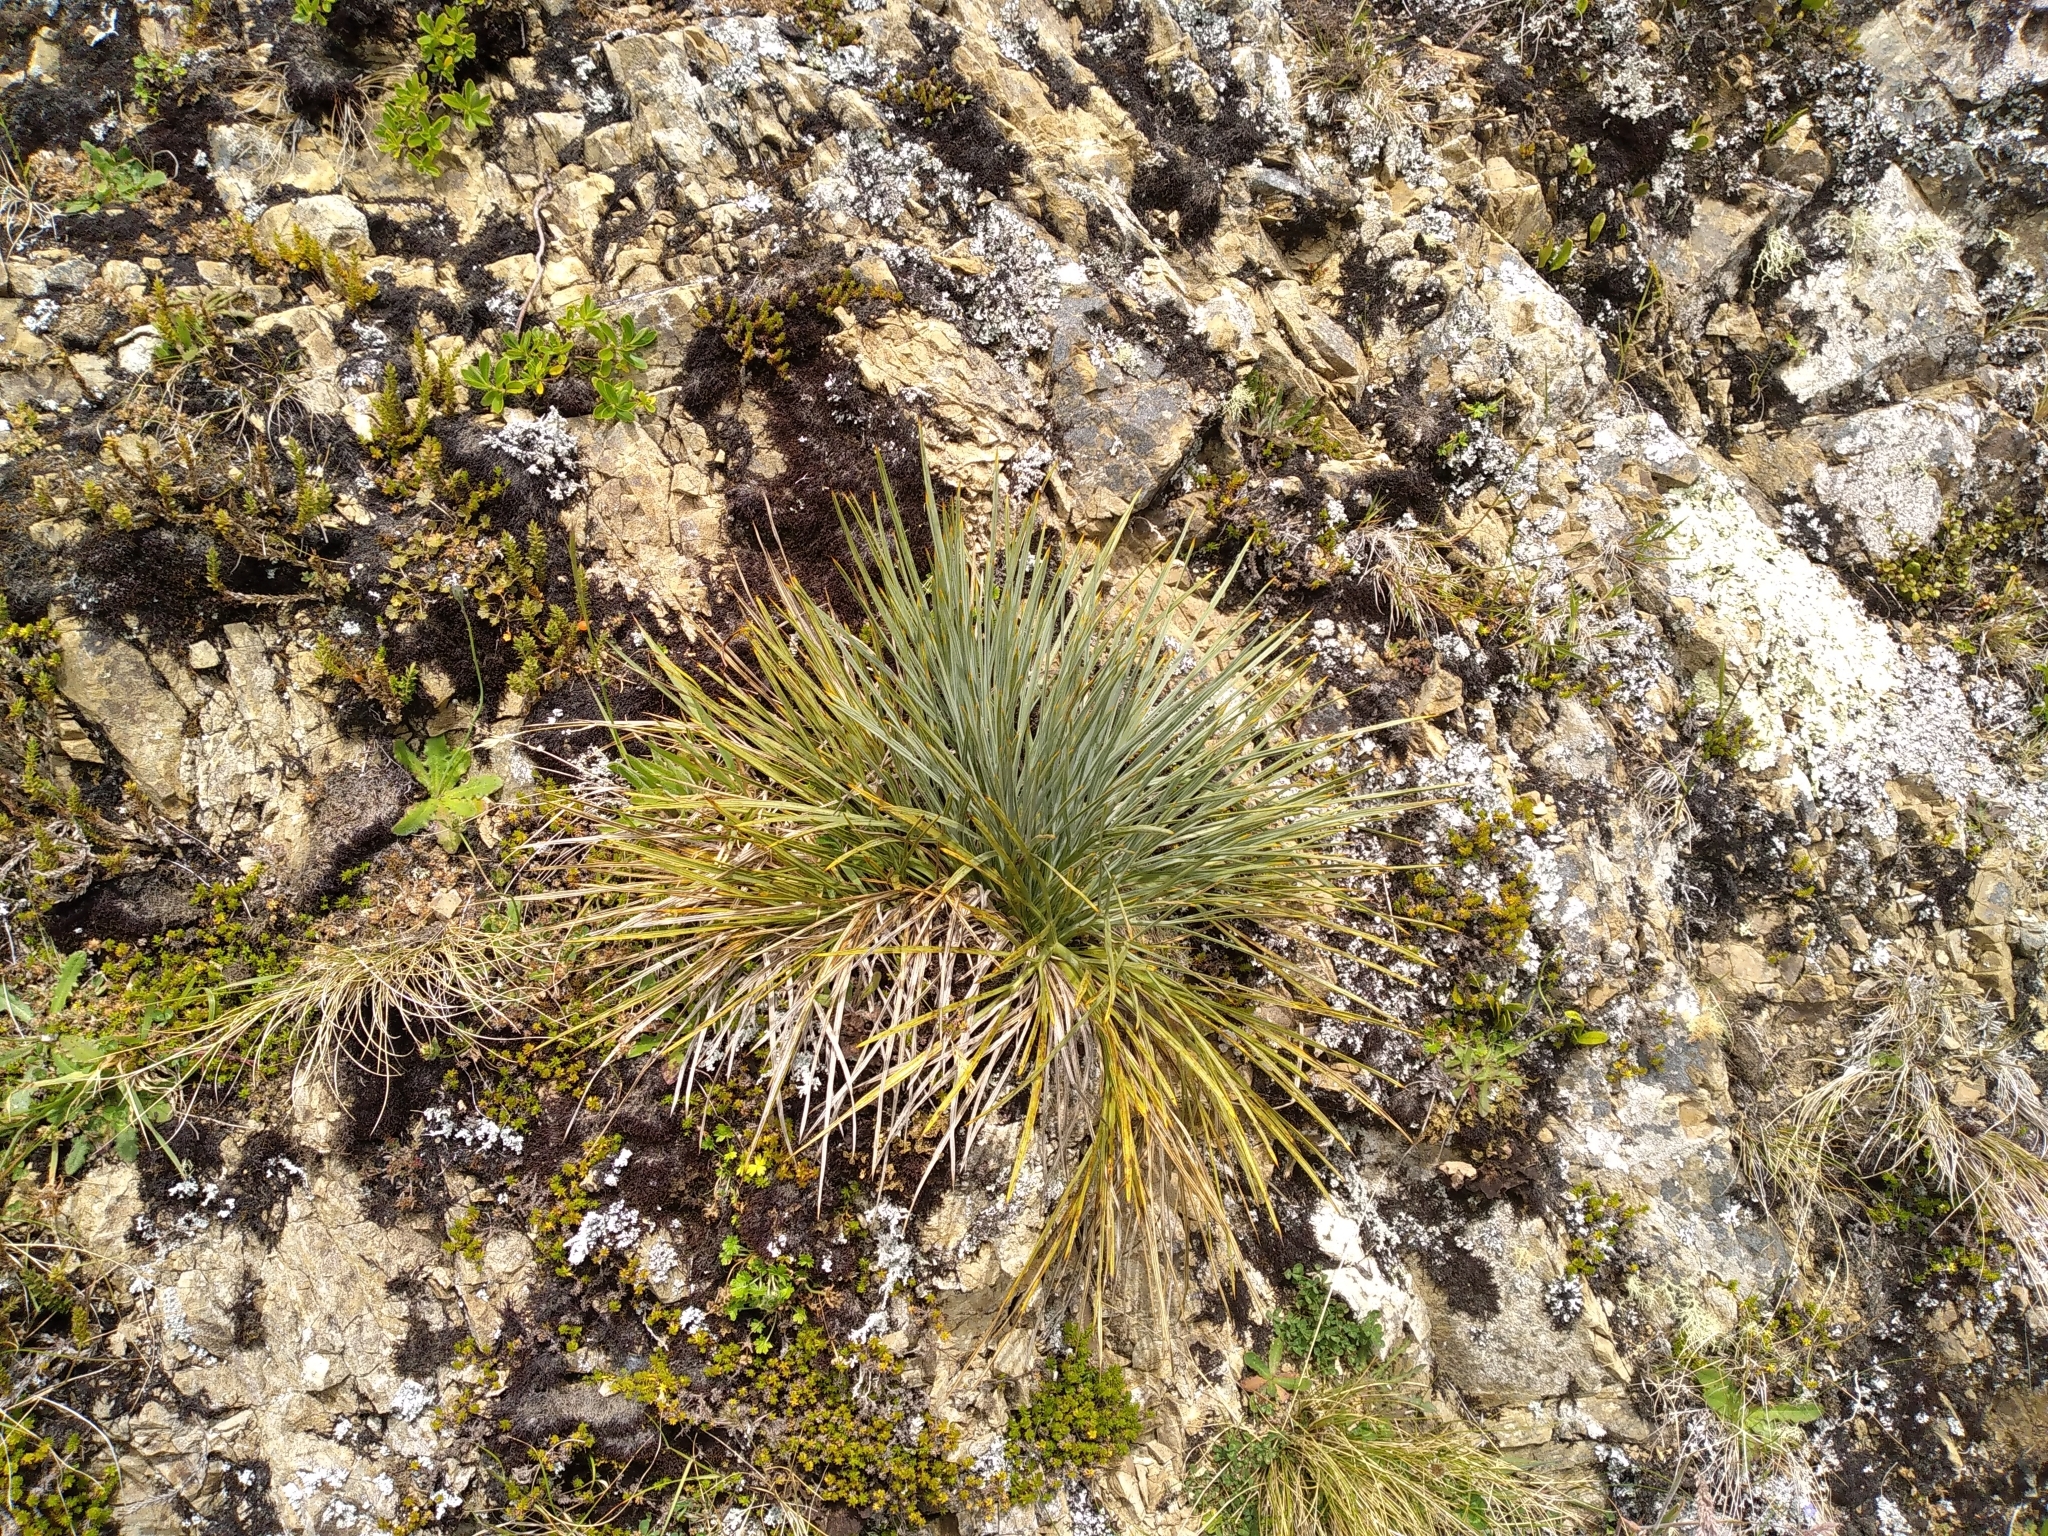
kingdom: Plantae
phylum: Tracheophyta
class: Magnoliopsida
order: Apiales
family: Apiaceae
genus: Aciphylla
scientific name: Aciphylla squarrosa
